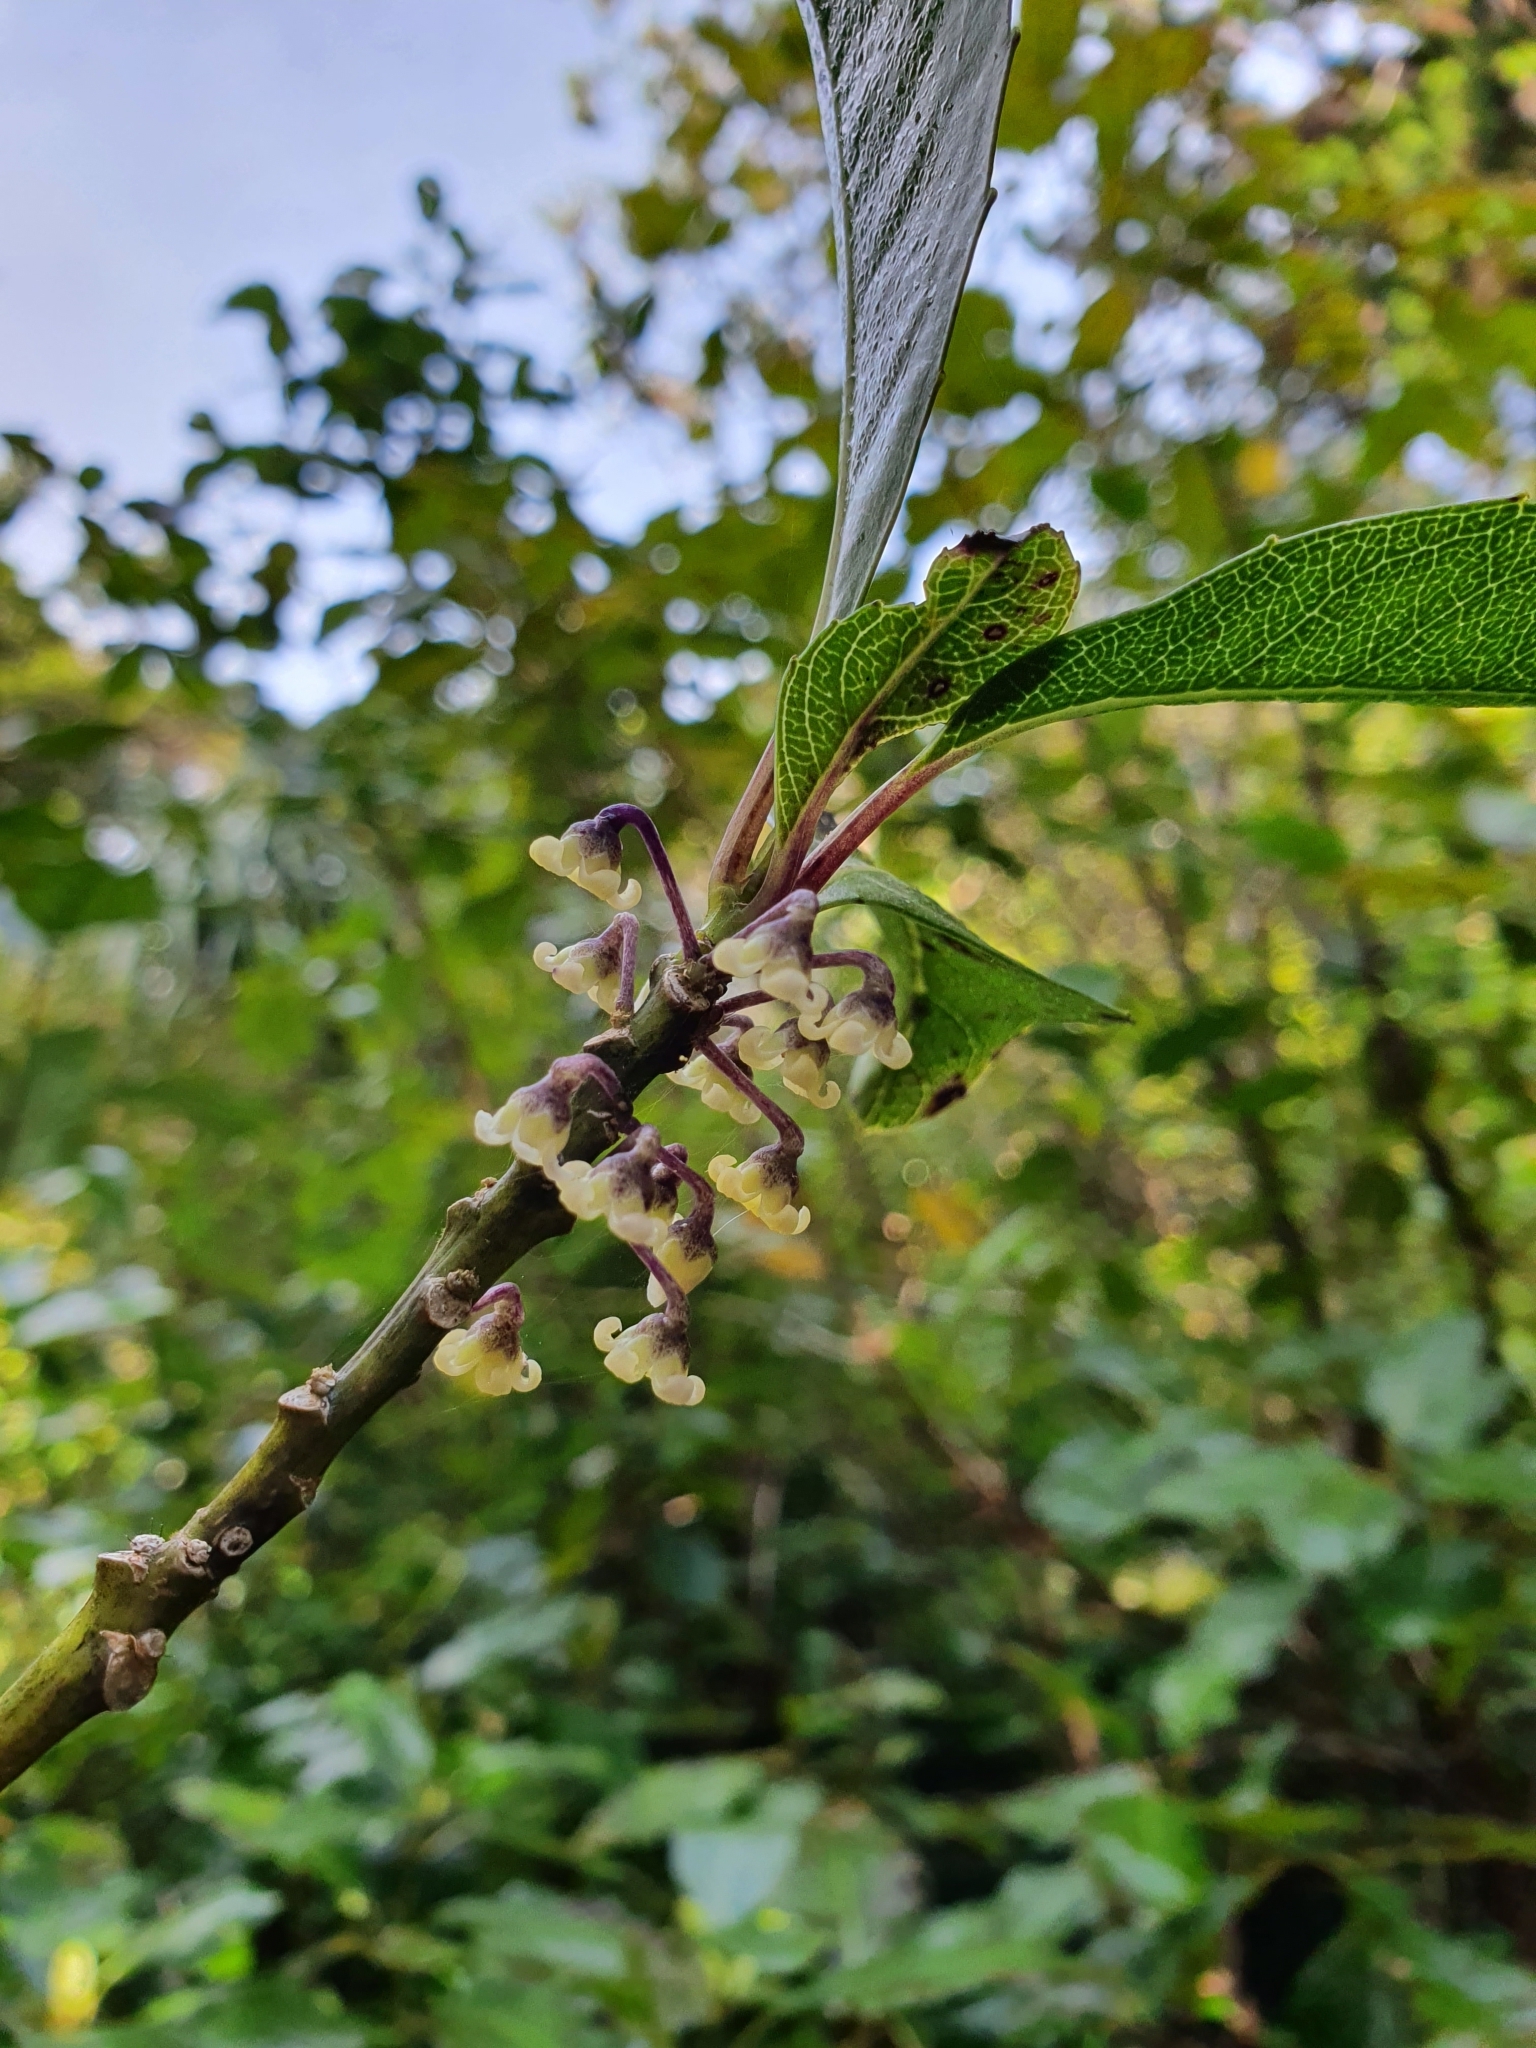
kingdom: Plantae
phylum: Tracheophyta
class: Magnoliopsida
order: Malpighiales
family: Violaceae
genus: Melicytus
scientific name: Melicytus macrophyllus
